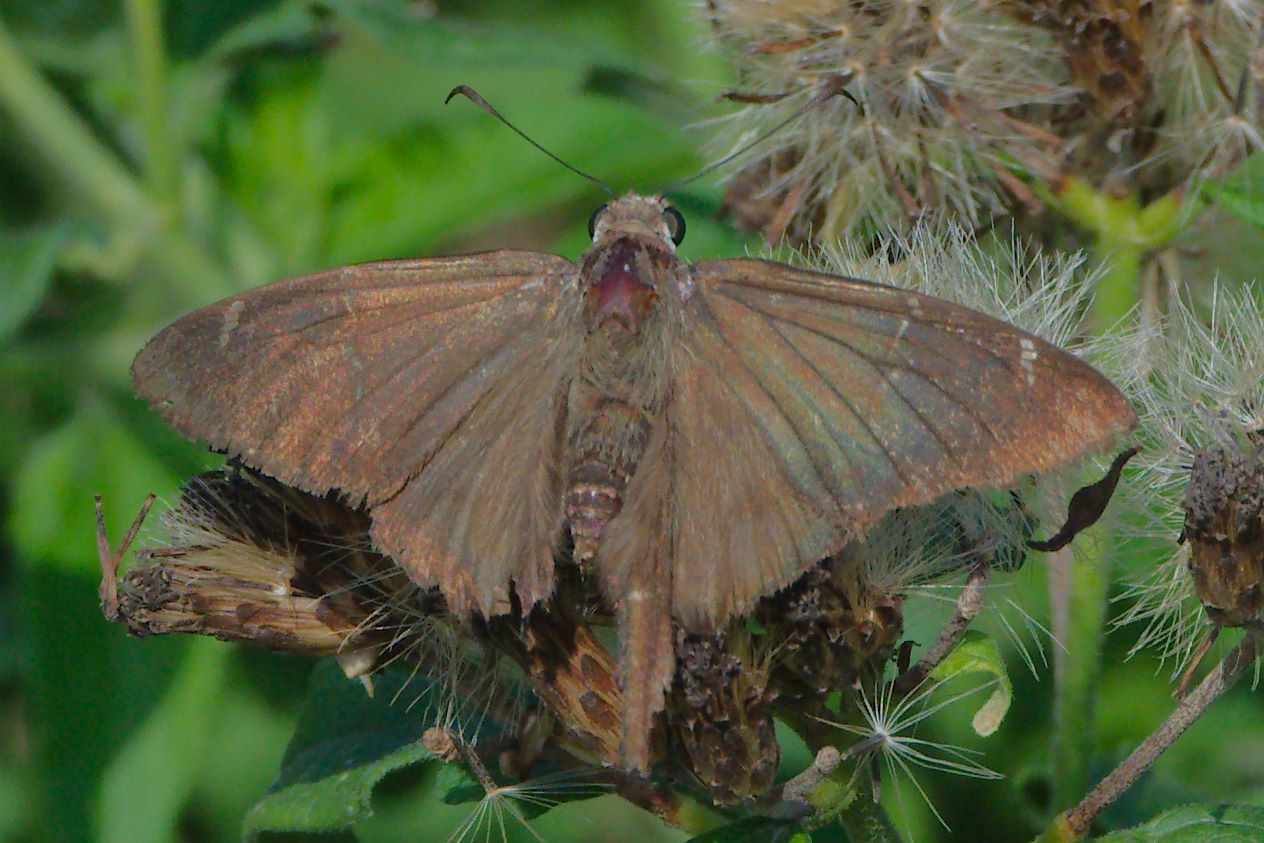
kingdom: Animalia
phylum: Arthropoda
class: Insecta
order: Lepidoptera
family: Hesperiidae
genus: Urbanus
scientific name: Urbanus procne
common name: Brown longtail
